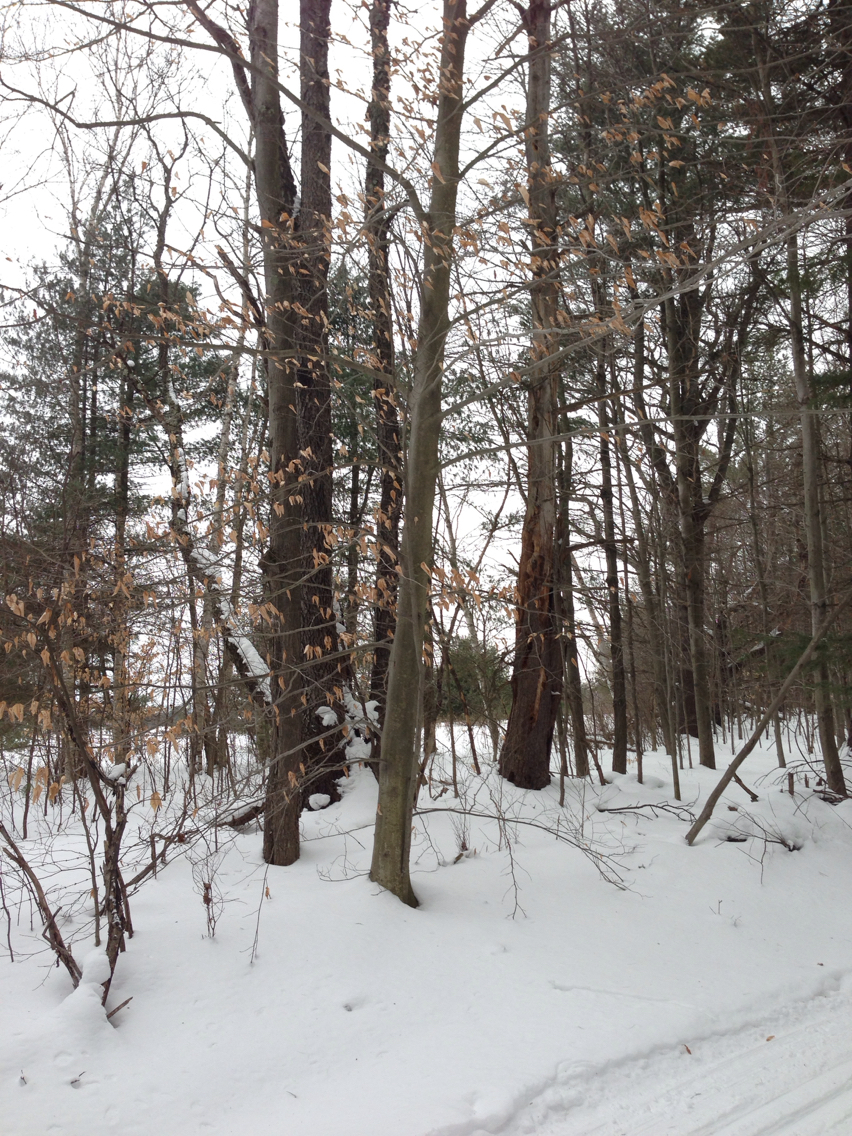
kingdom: Plantae
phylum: Tracheophyta
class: Magnoliopsida
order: Fagales
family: Fagaceae
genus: Fagus
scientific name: Fagus grandifolia
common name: American beech
